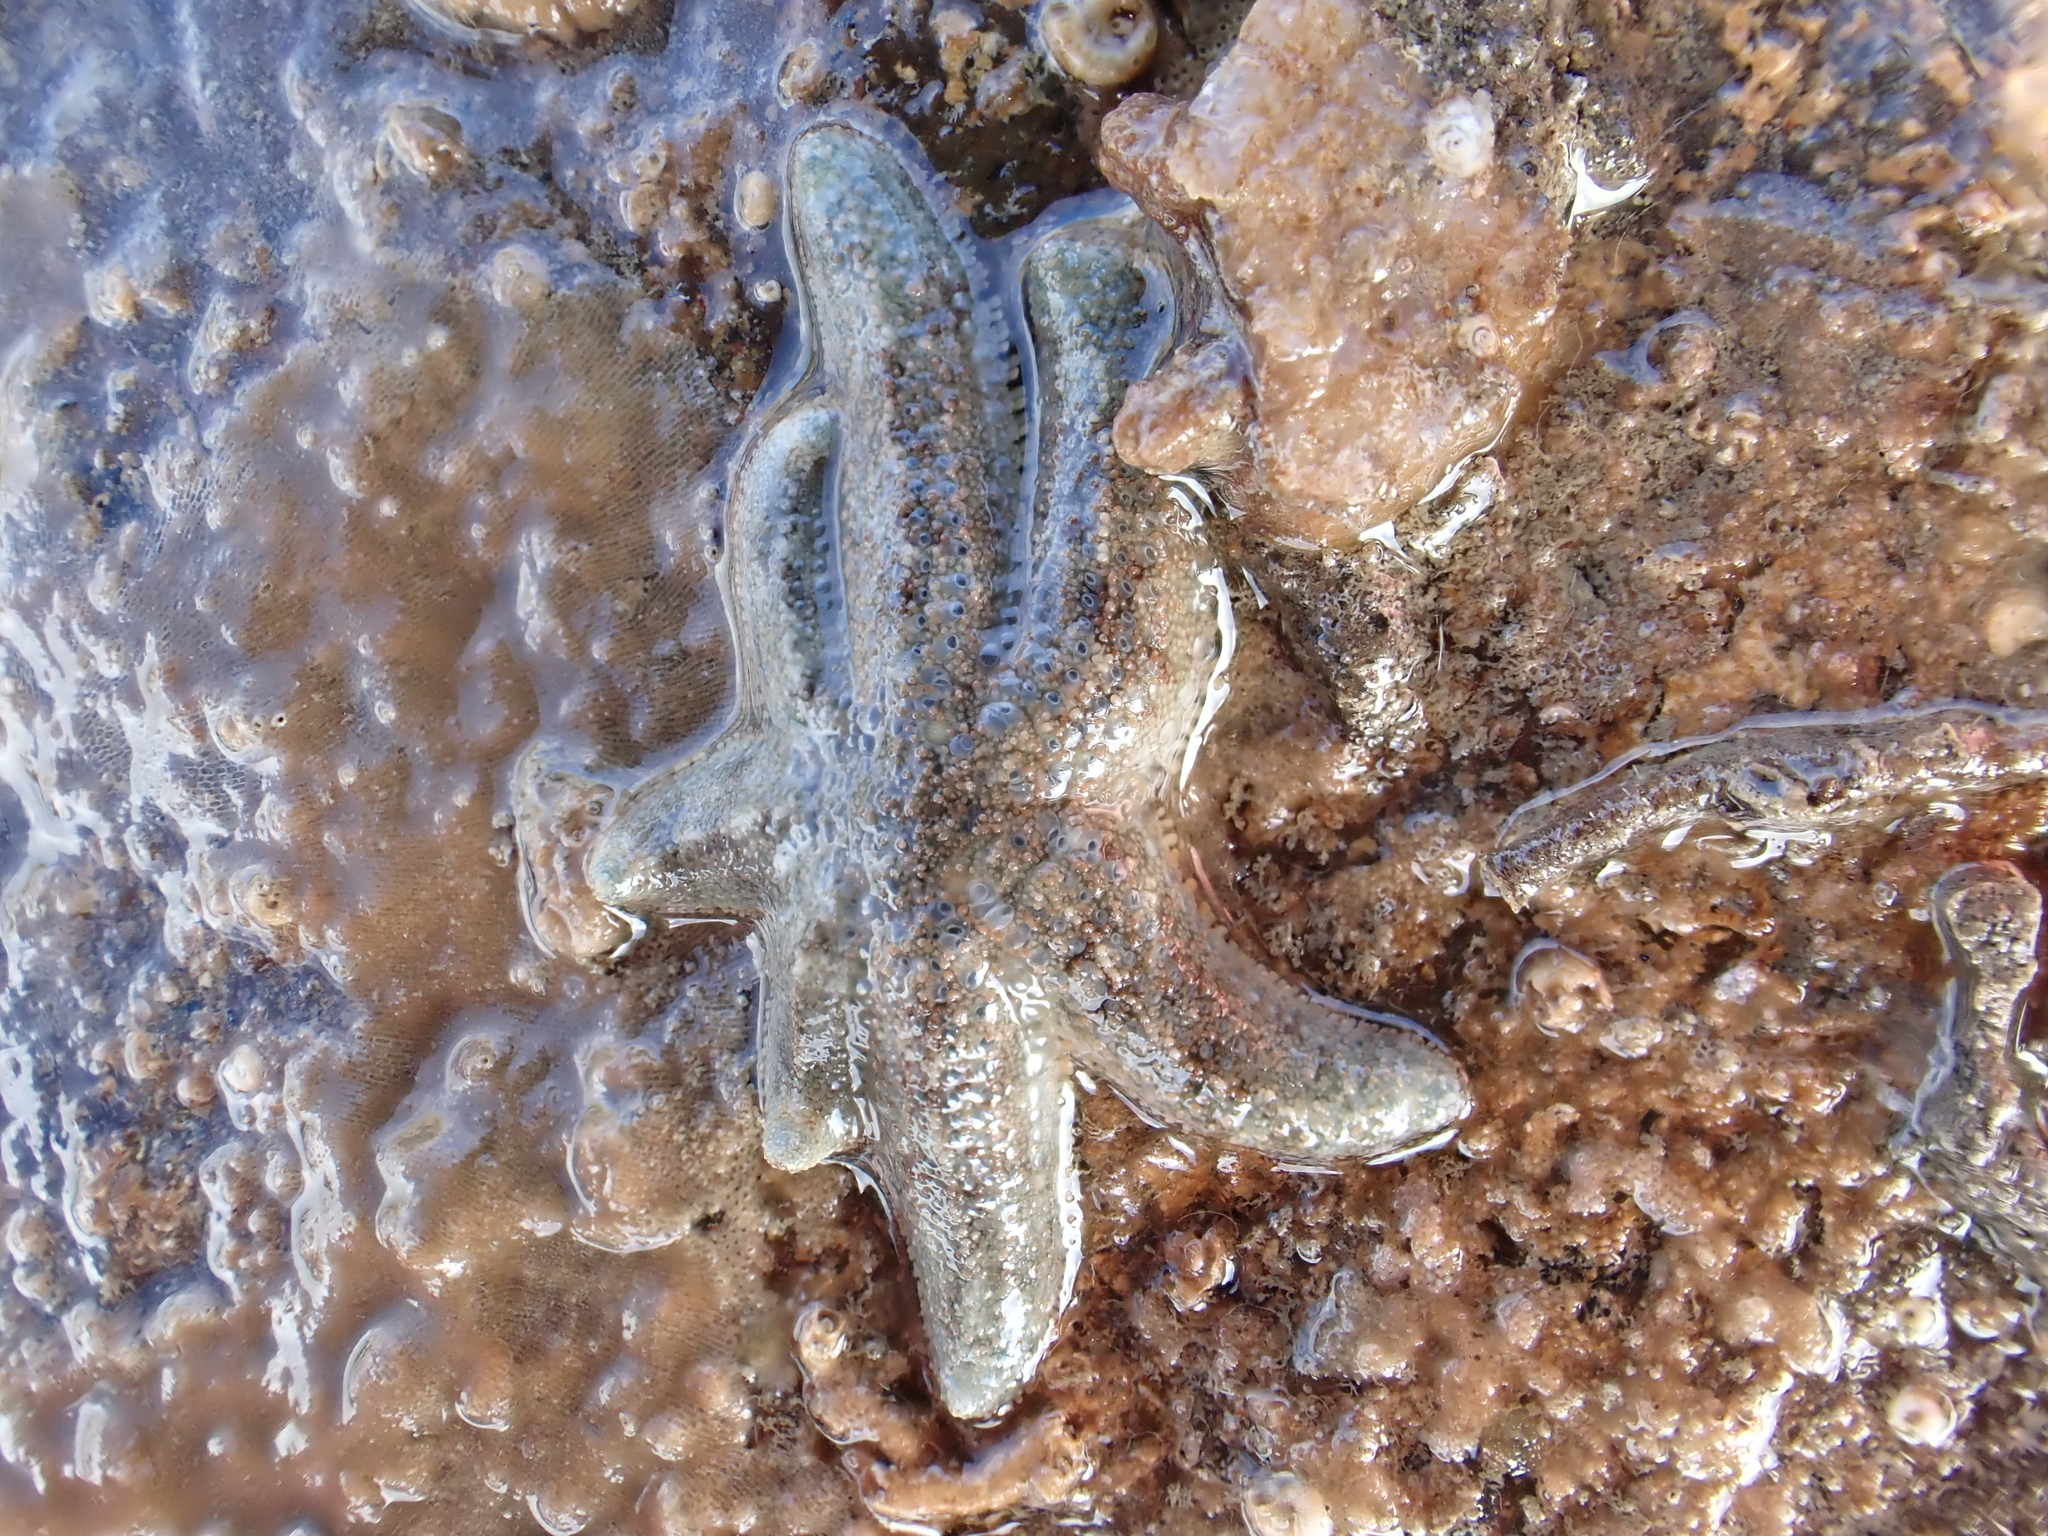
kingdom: Animalia
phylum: Echinodermata
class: Asteroidea
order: Forcipulatida
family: Stichasteridae
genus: Allostichaster
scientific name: Allostichaster polyplax
